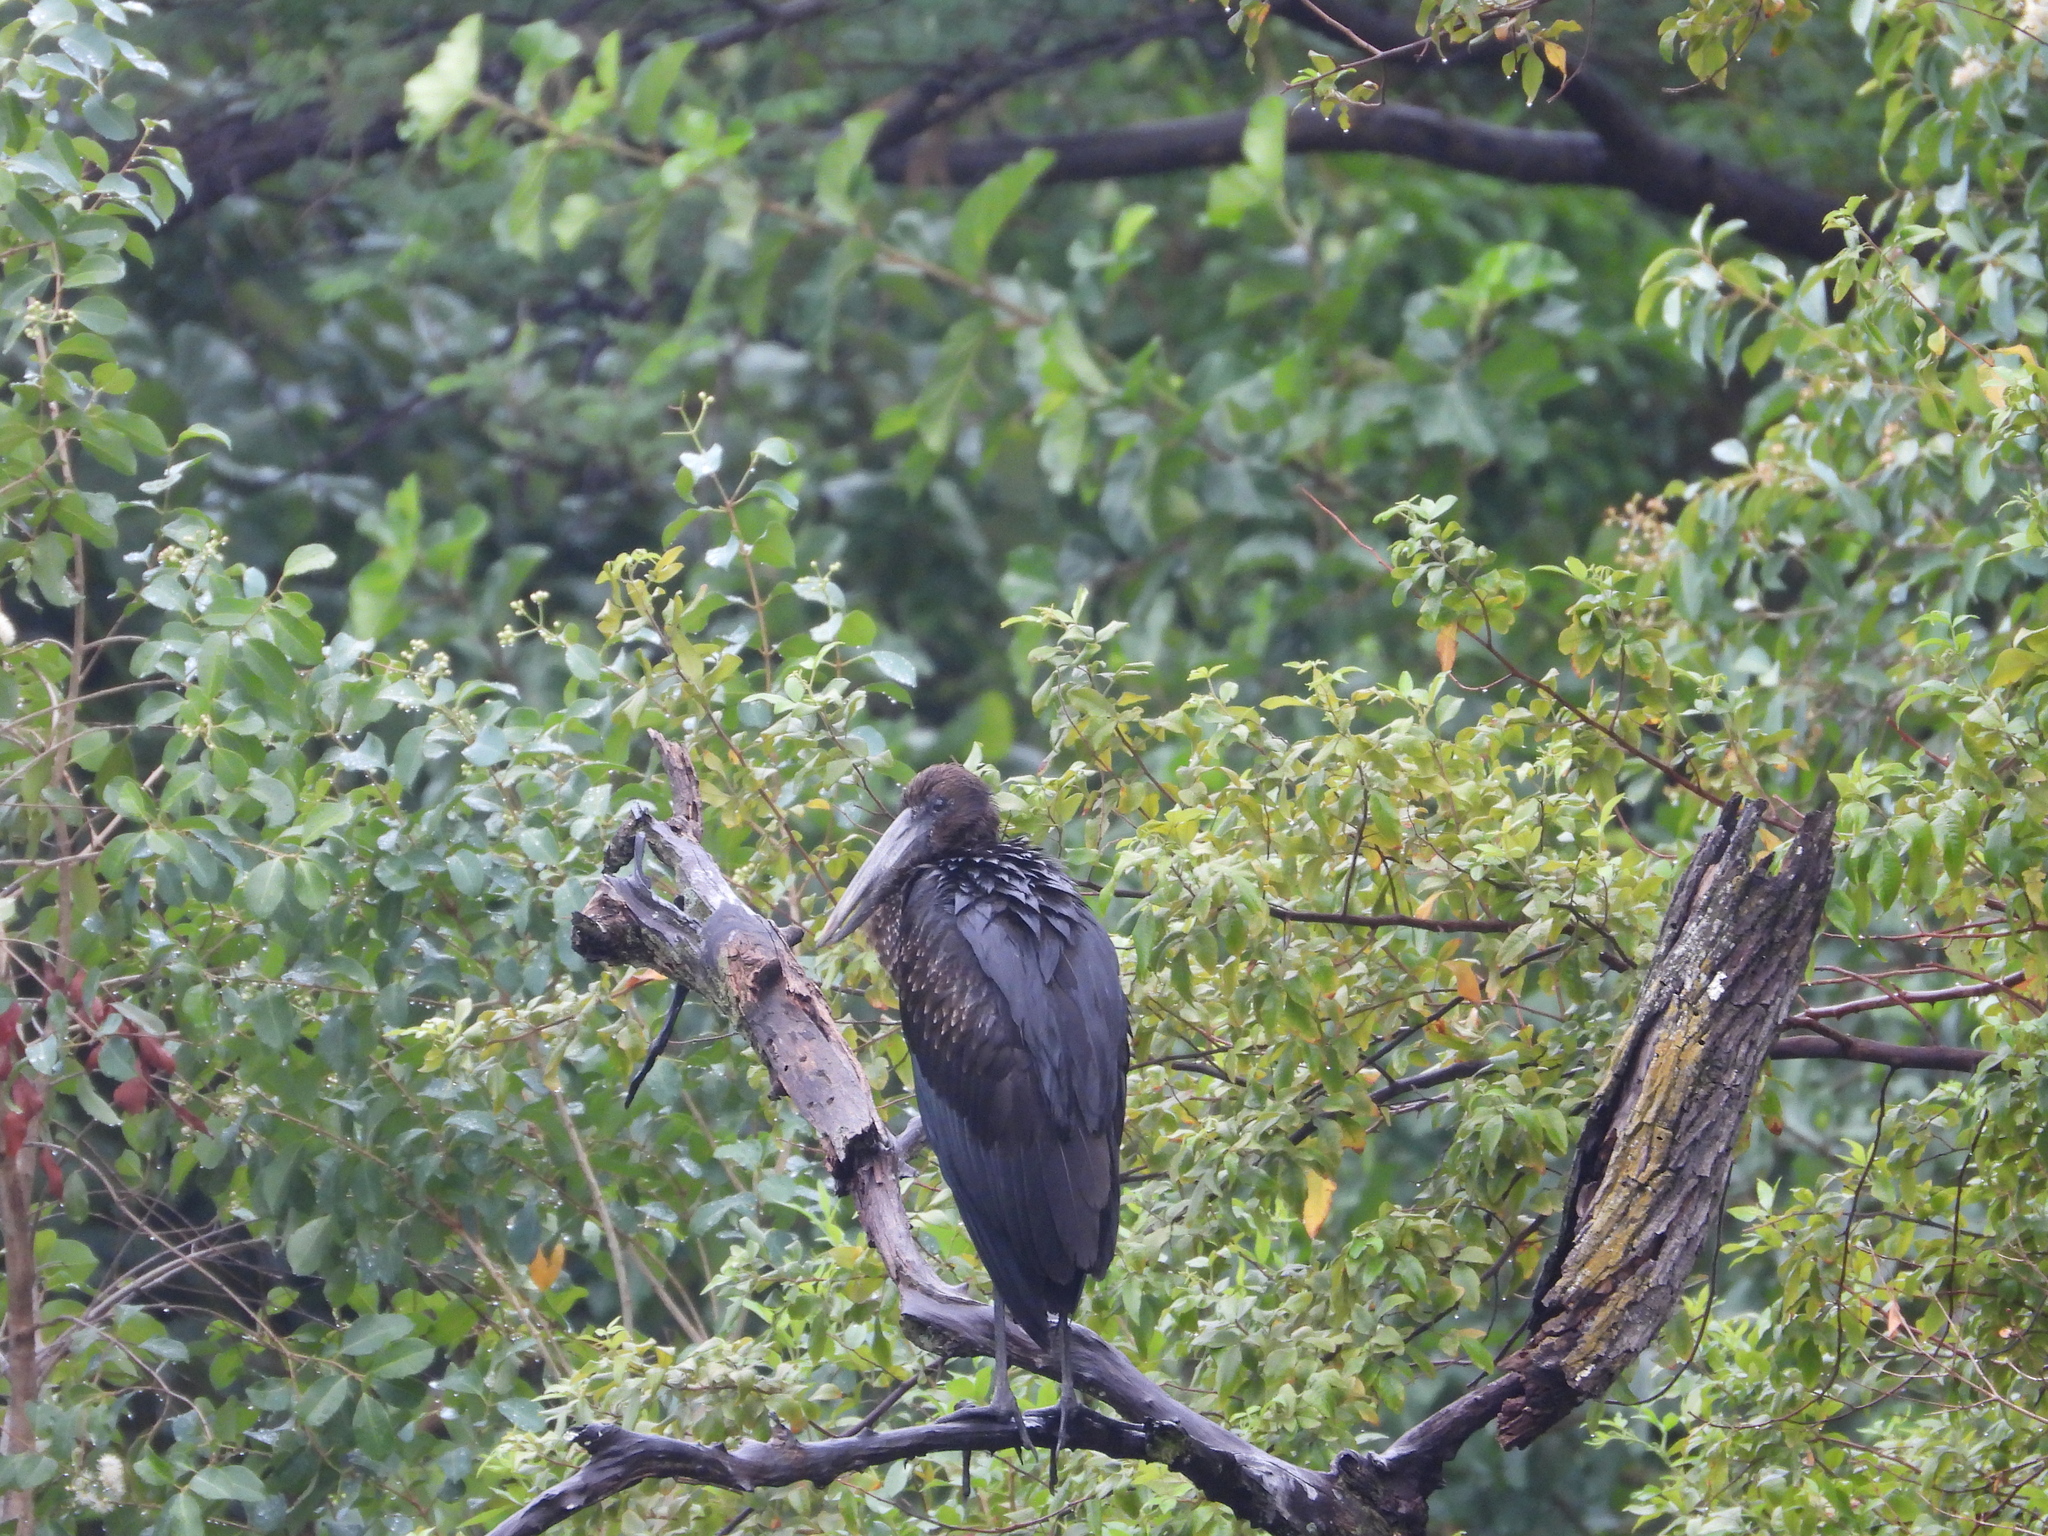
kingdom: Animalia
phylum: Chordata
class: Aves
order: Ciconiiformes
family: Ciconiidae
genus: Anastomus
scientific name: Anastomus lamelligerus
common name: African openbill
